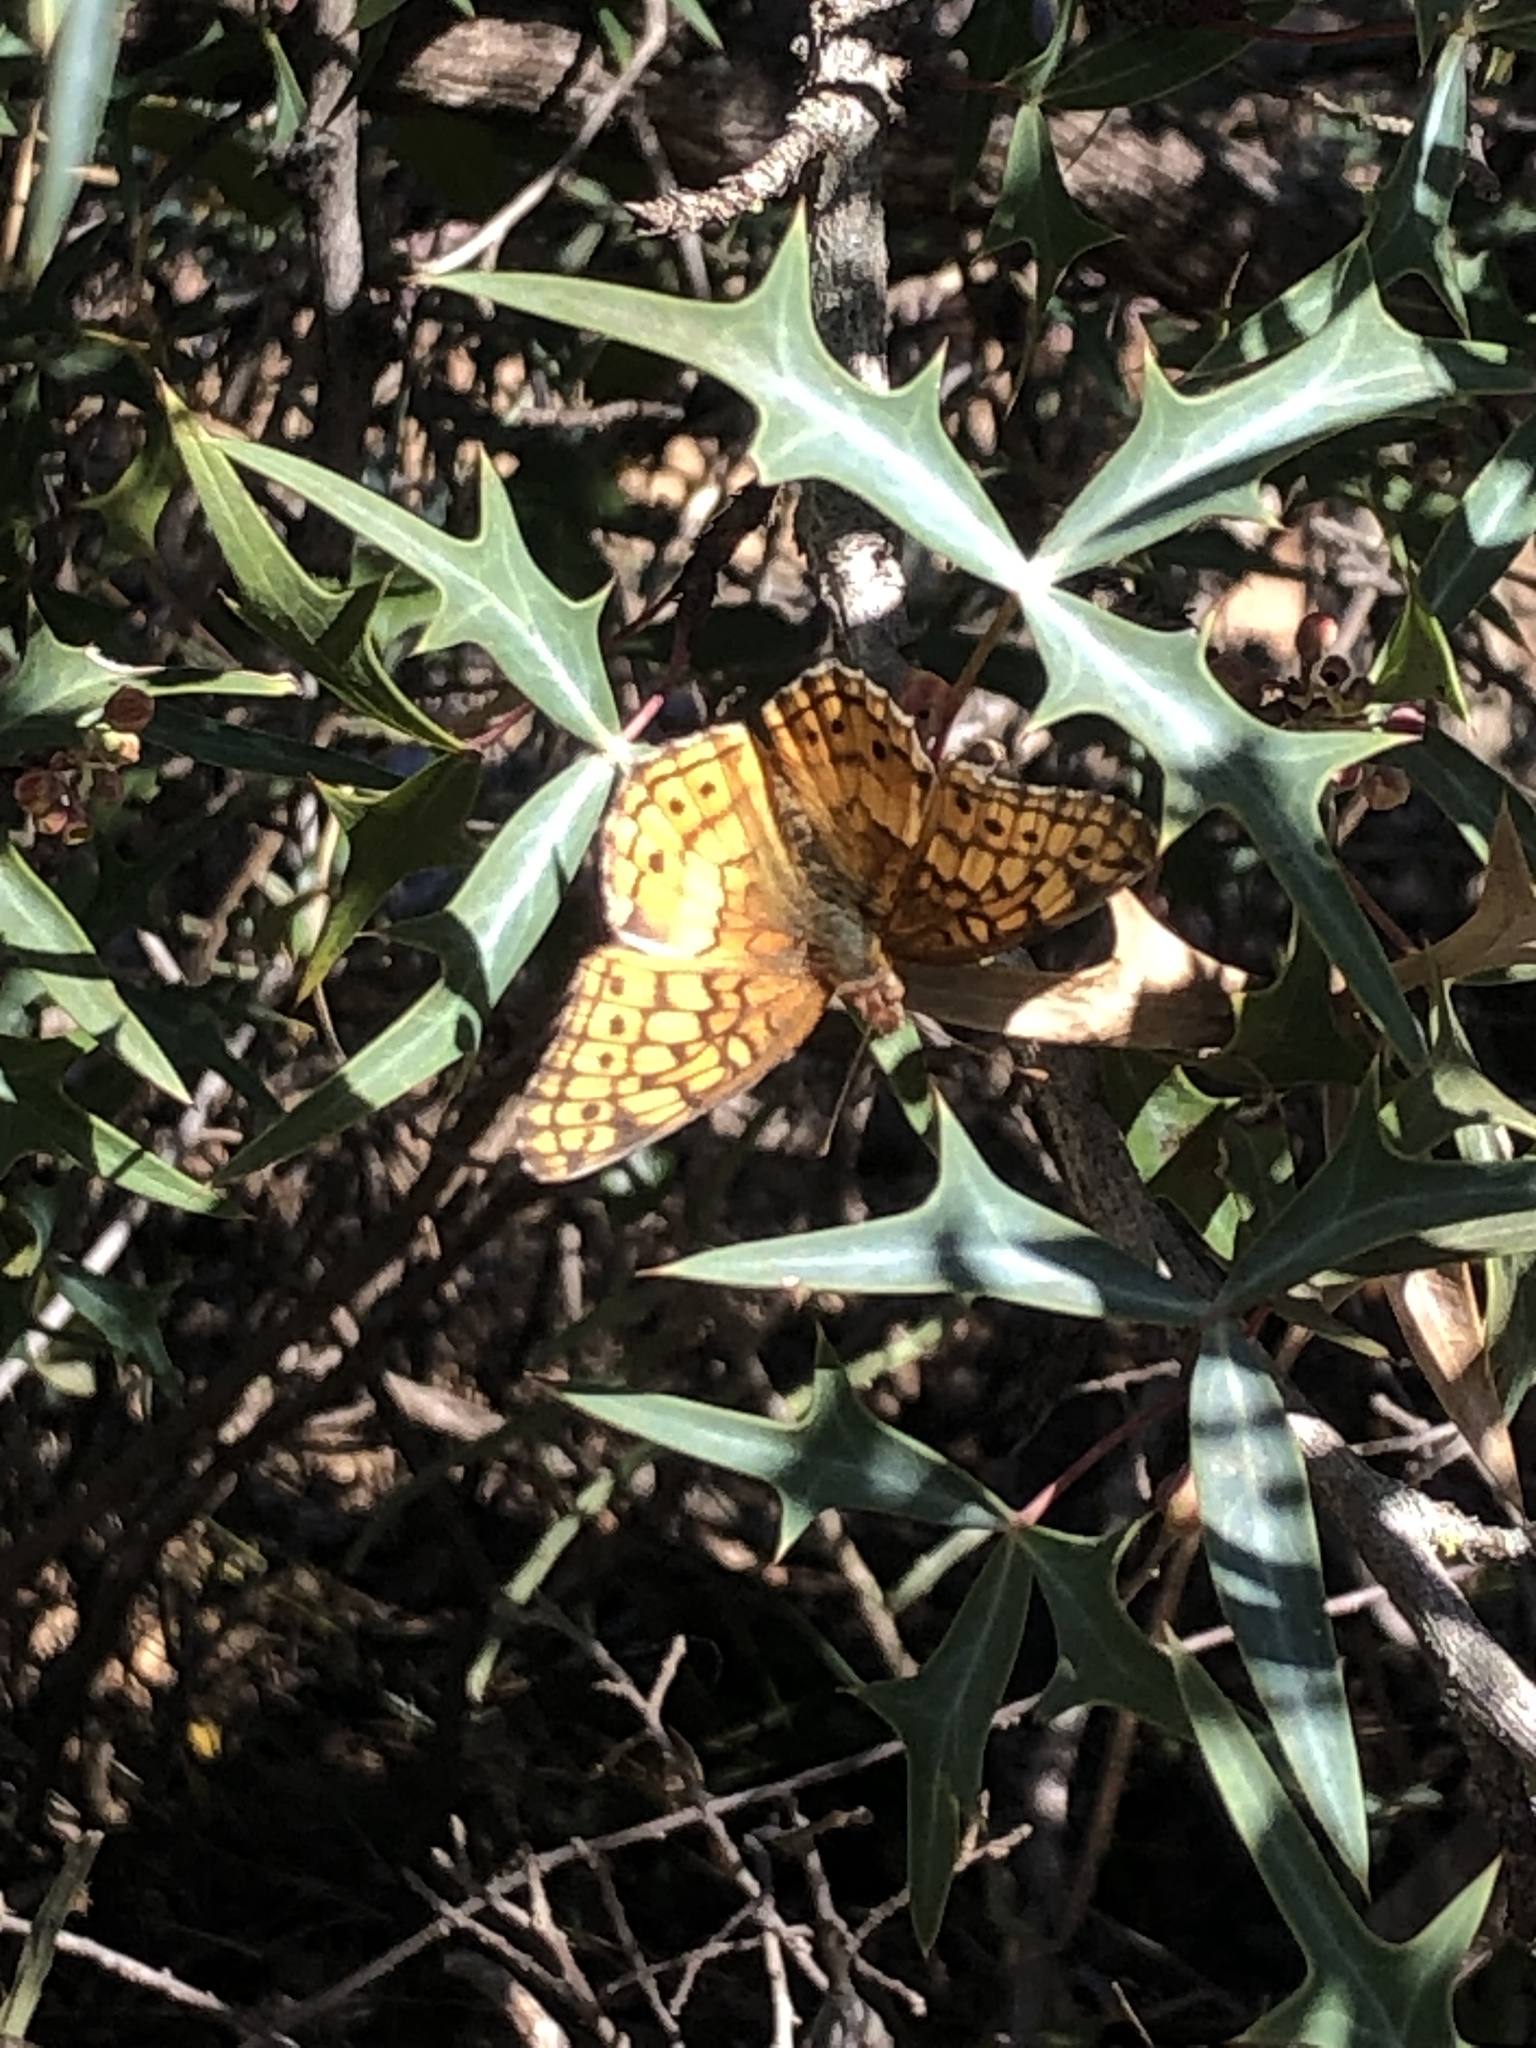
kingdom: Animalia
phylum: Arthropoda
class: Insecta
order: Lepidoptera
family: Nymphalidae
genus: Euptoieta
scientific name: Euptoieta claudia
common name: Variegated fritillary
